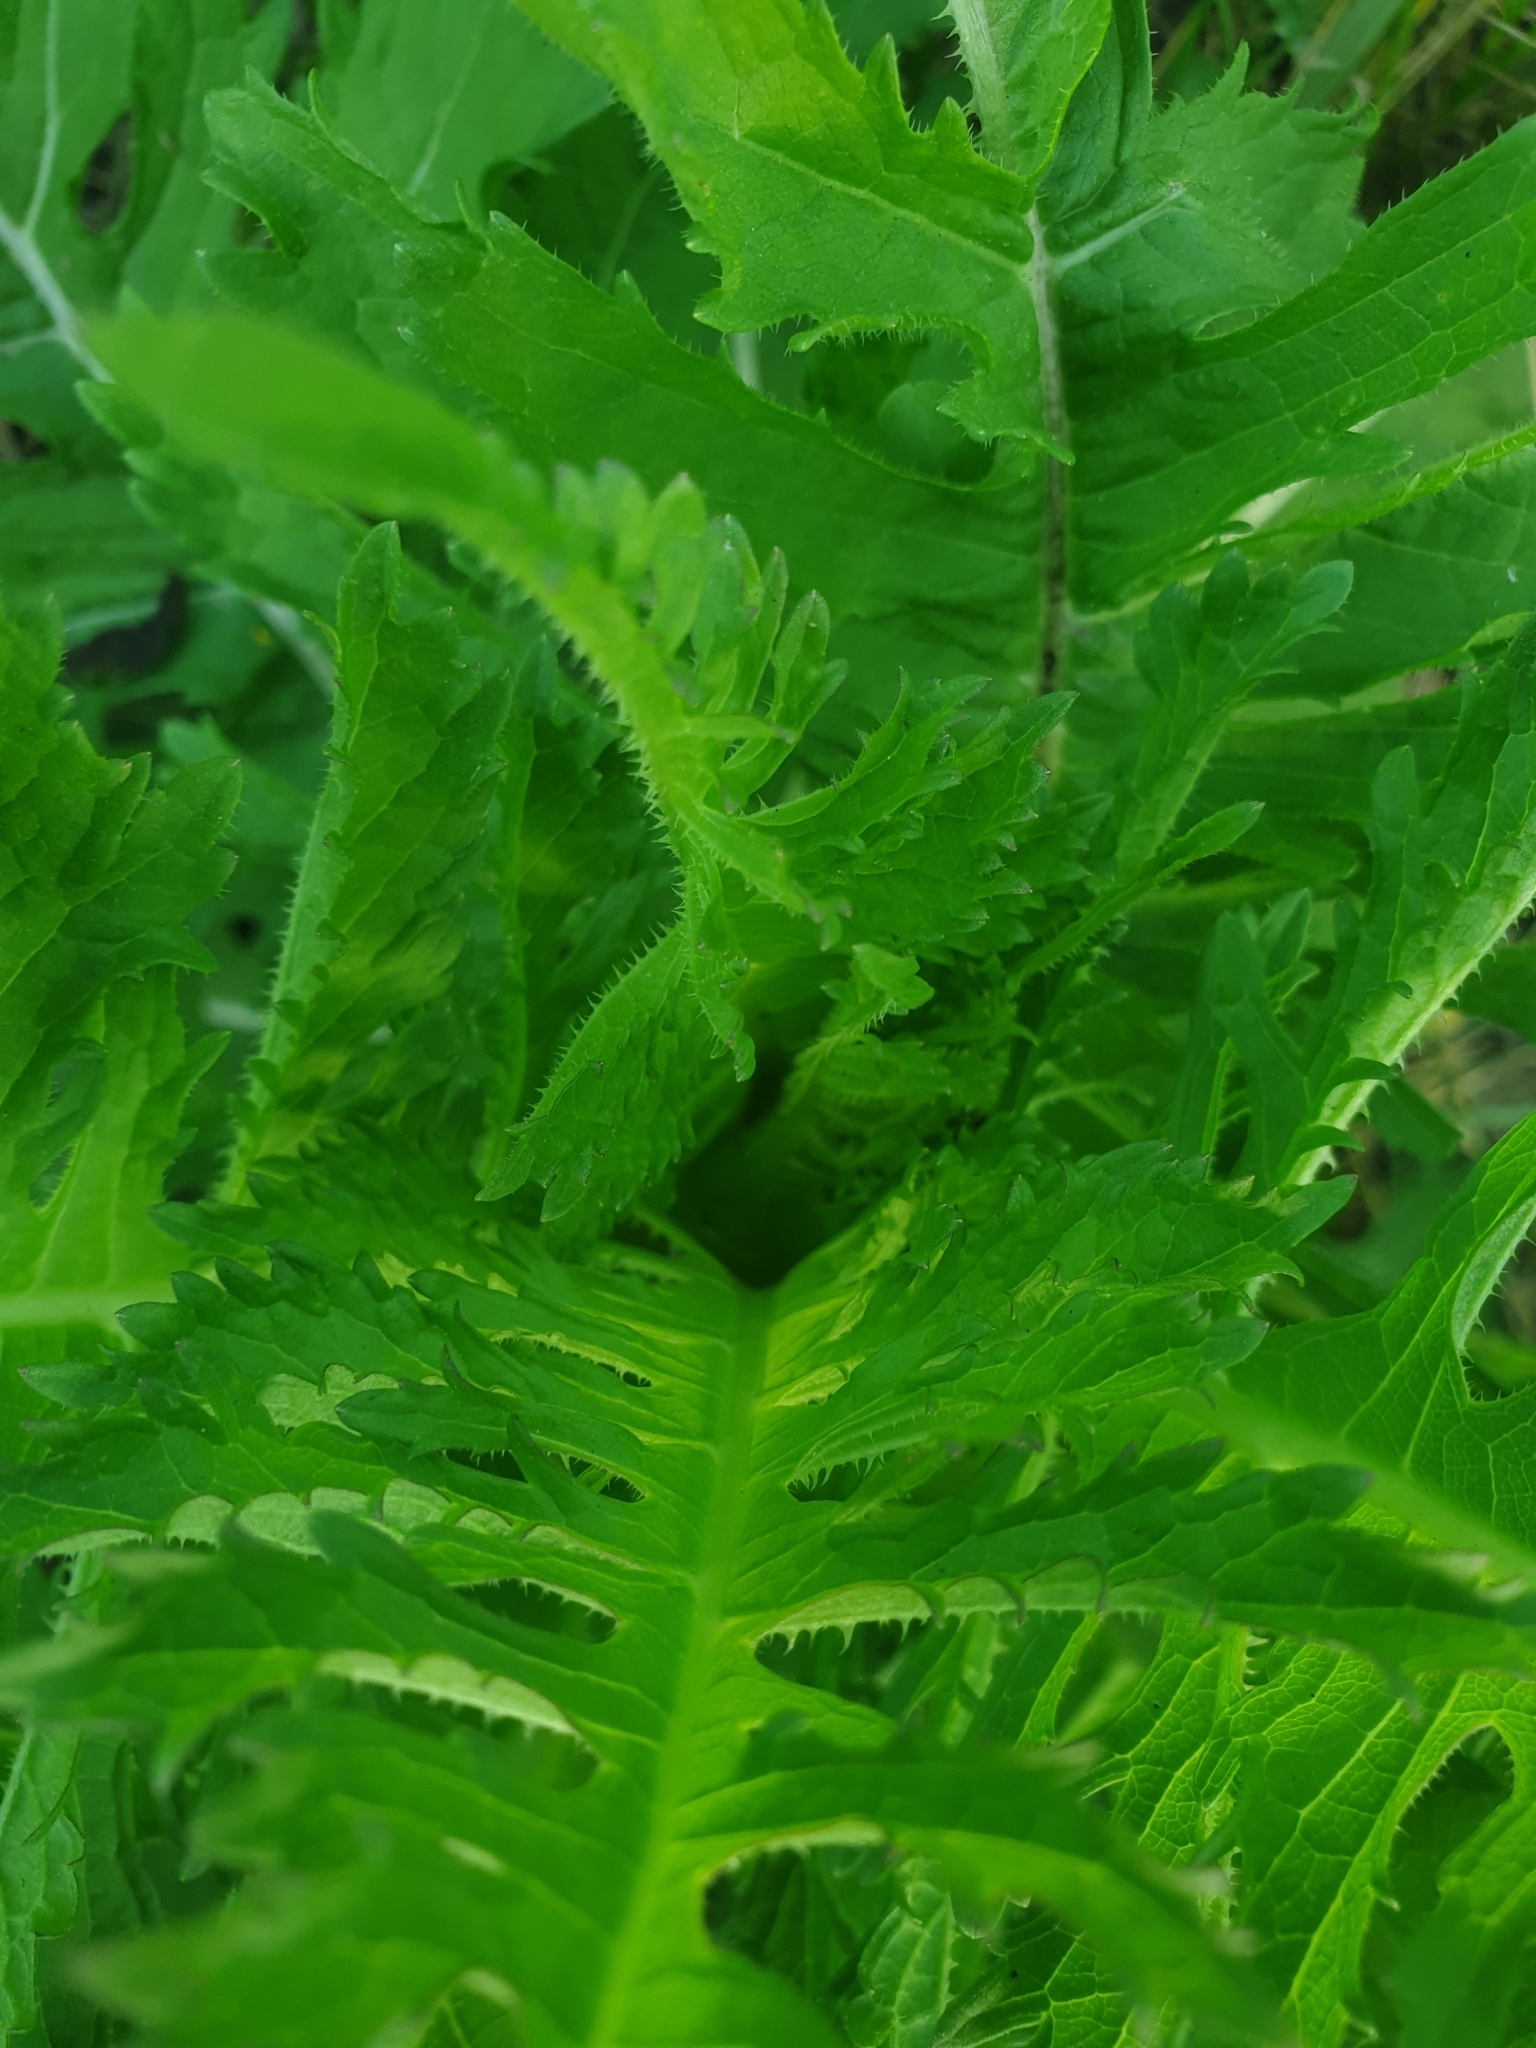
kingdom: Plantae
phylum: Tracheophyta
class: Magnoliopsida
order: Dipsacales
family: Caprifoliaceae
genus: Dipsacus
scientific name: Dipsacus laciniatus
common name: Cut-leaved teasel
